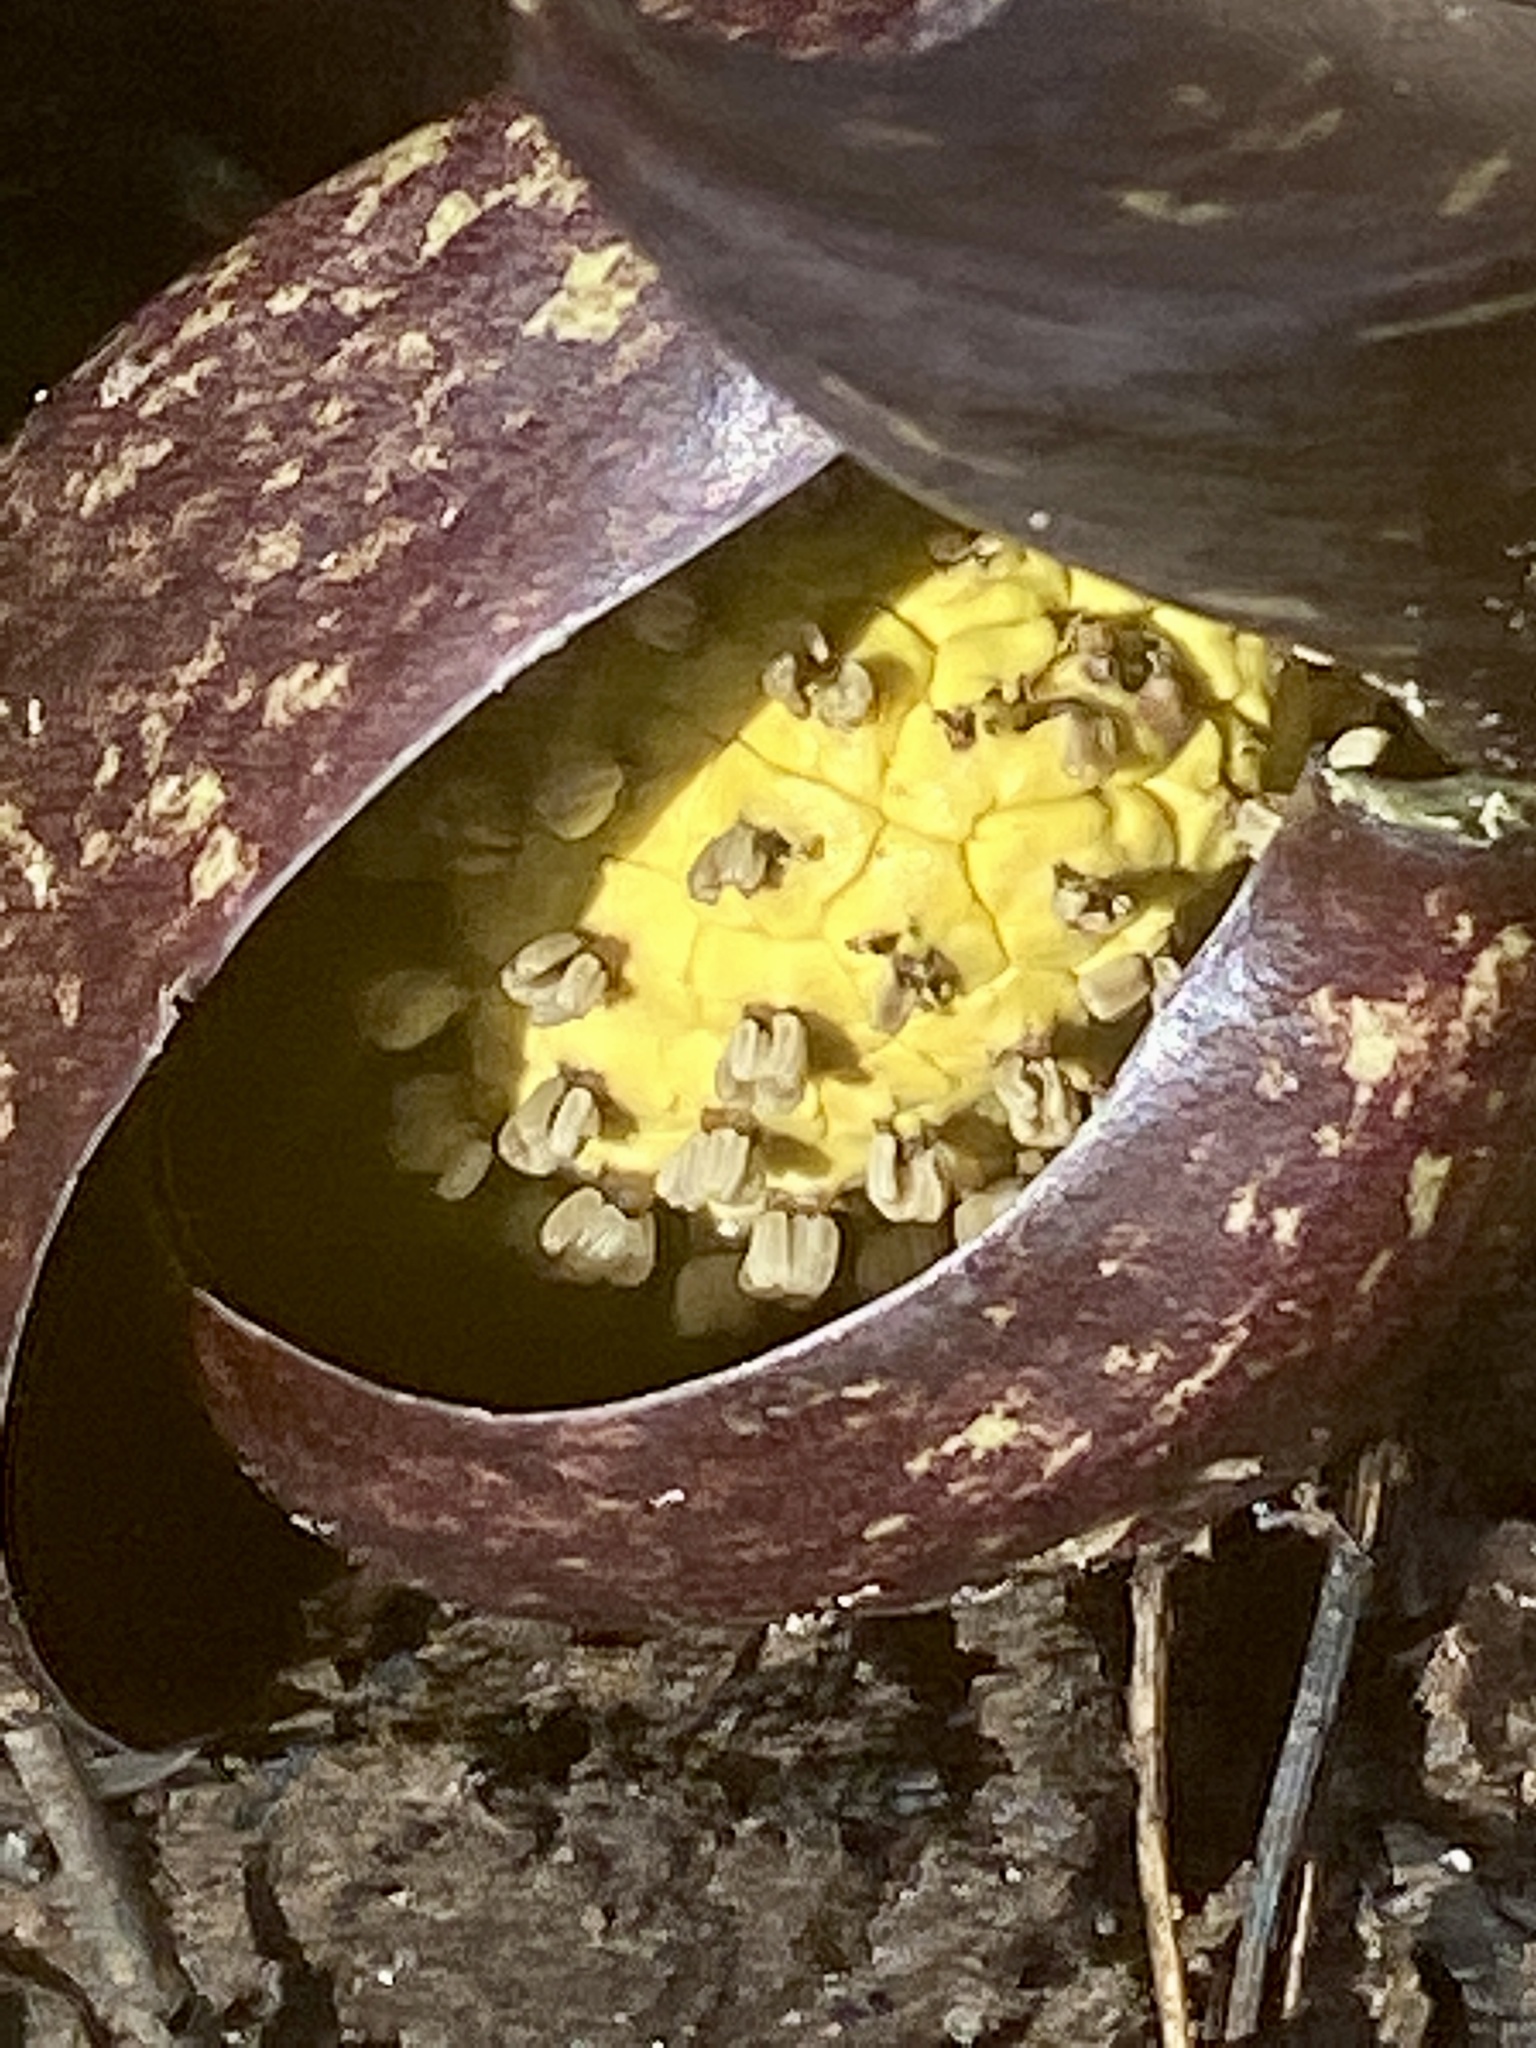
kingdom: Plantae
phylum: Tracheophyta
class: Liliopsida
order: Alismatales
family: Araceae
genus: Symplocarpus
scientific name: Symplocarpus foetidus
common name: Eastern skunk cabbage
